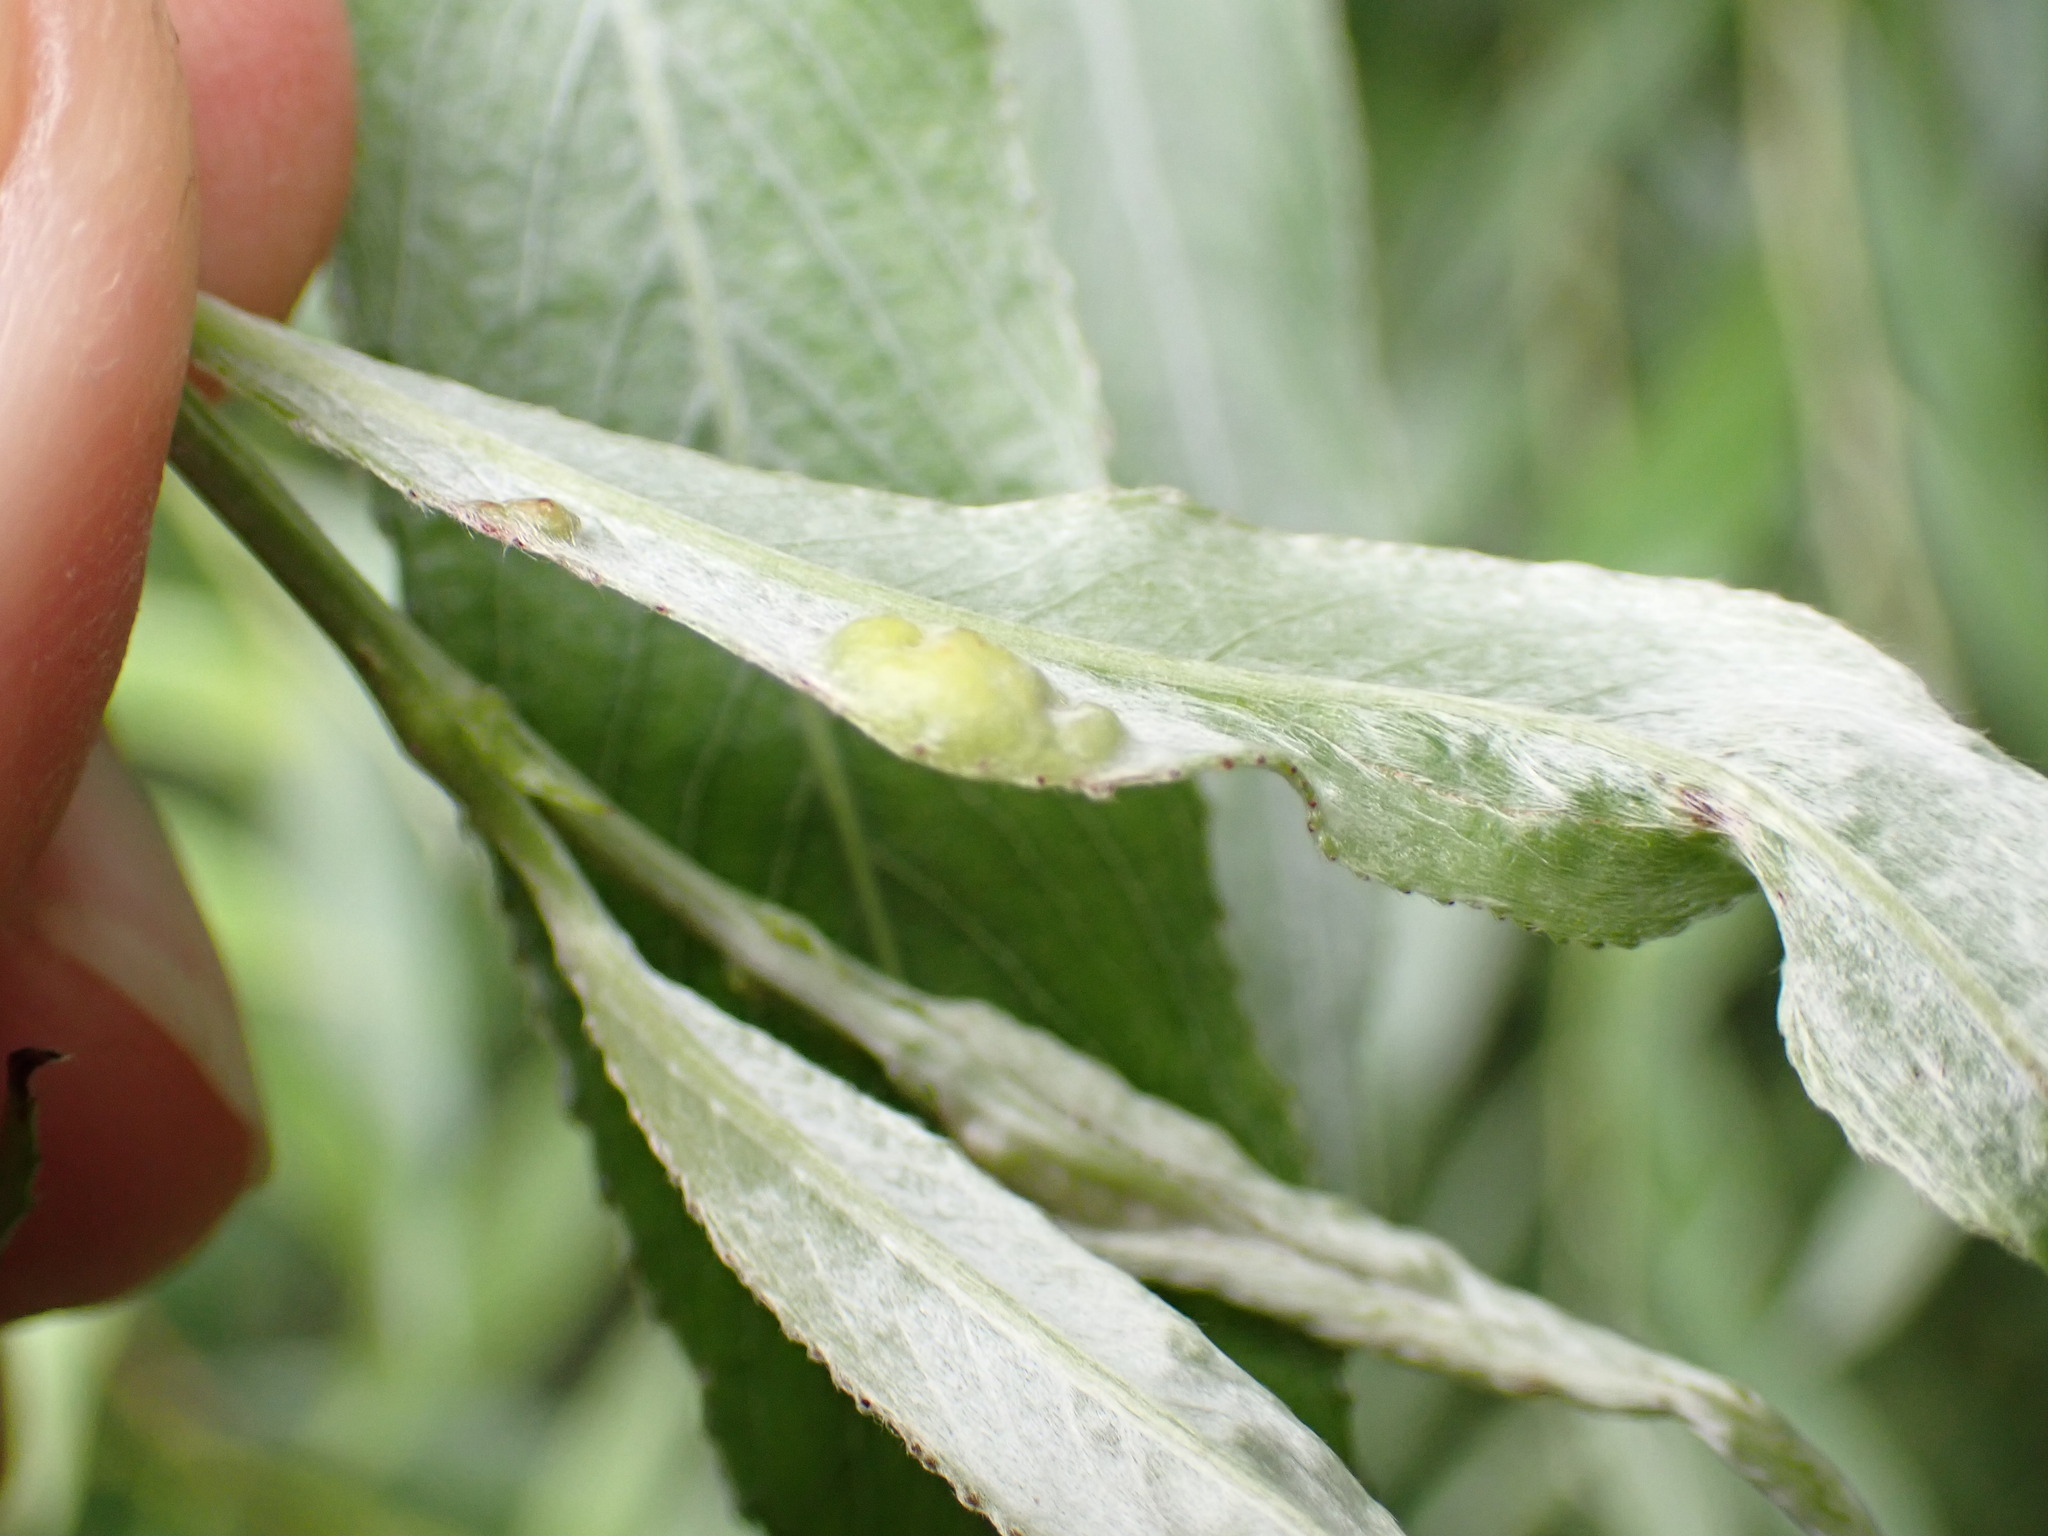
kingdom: Animalia
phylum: Arthropoda
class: Insecta
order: Hymenoptera
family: Tenthredinidae
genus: Pontania
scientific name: Pontania proxima
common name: Common sawfly
